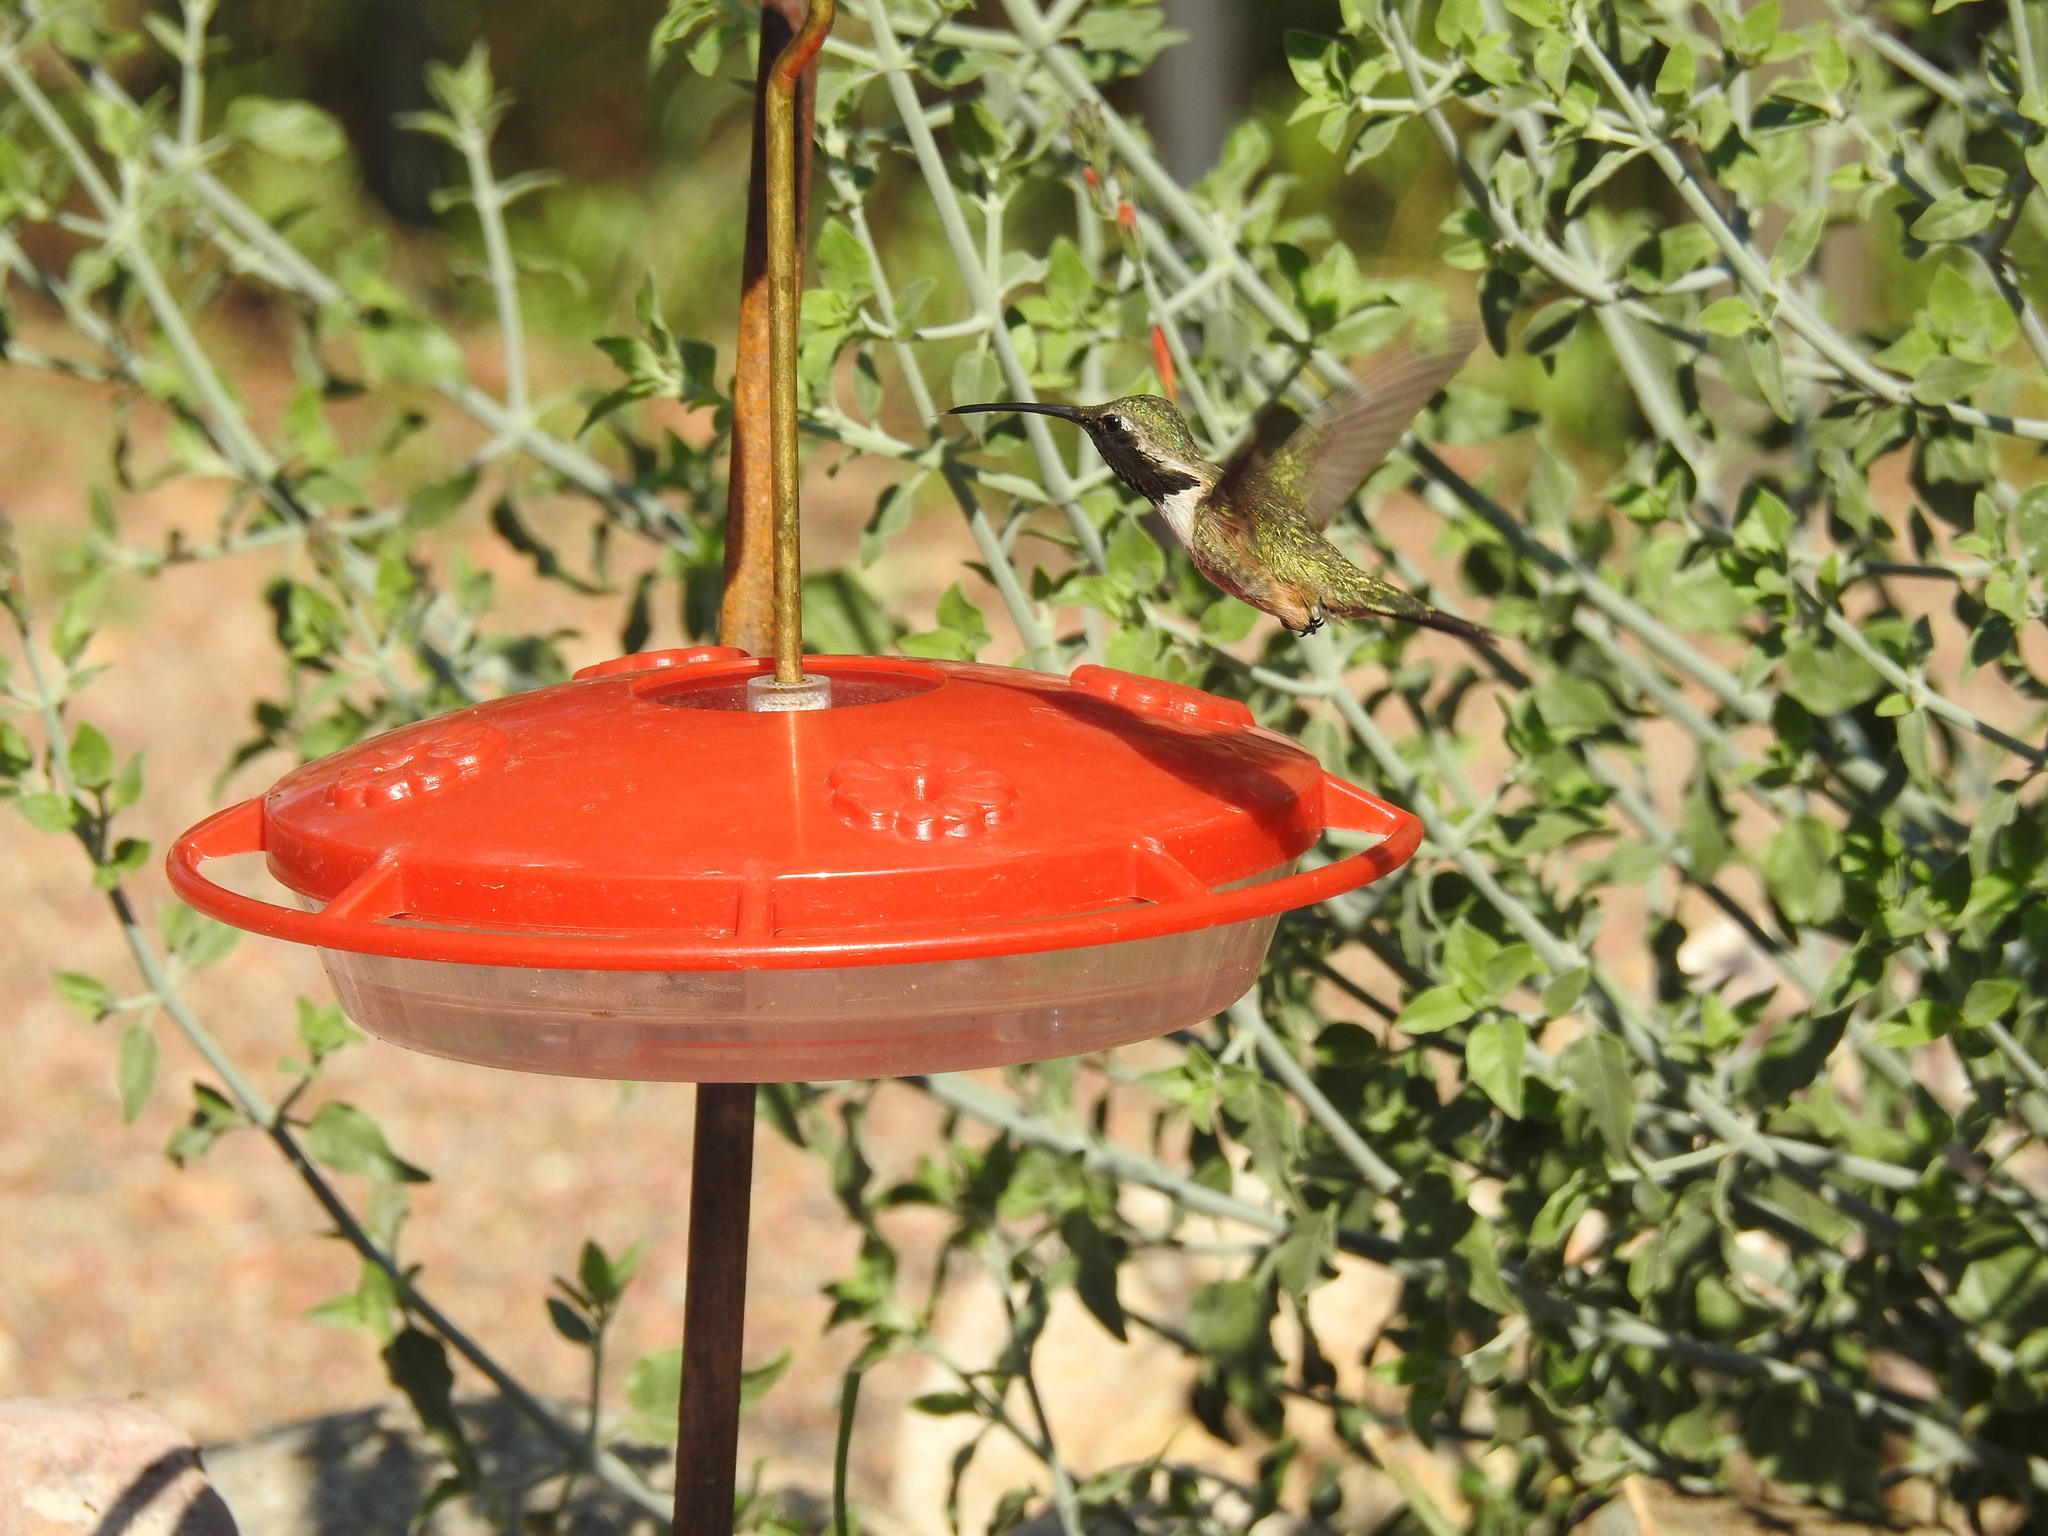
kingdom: Animalia
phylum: Chordata
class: Aves
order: Apodiformes
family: Trochilidae
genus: Calothorax
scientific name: Calothorax lucifer
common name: Lucifer sheartail
